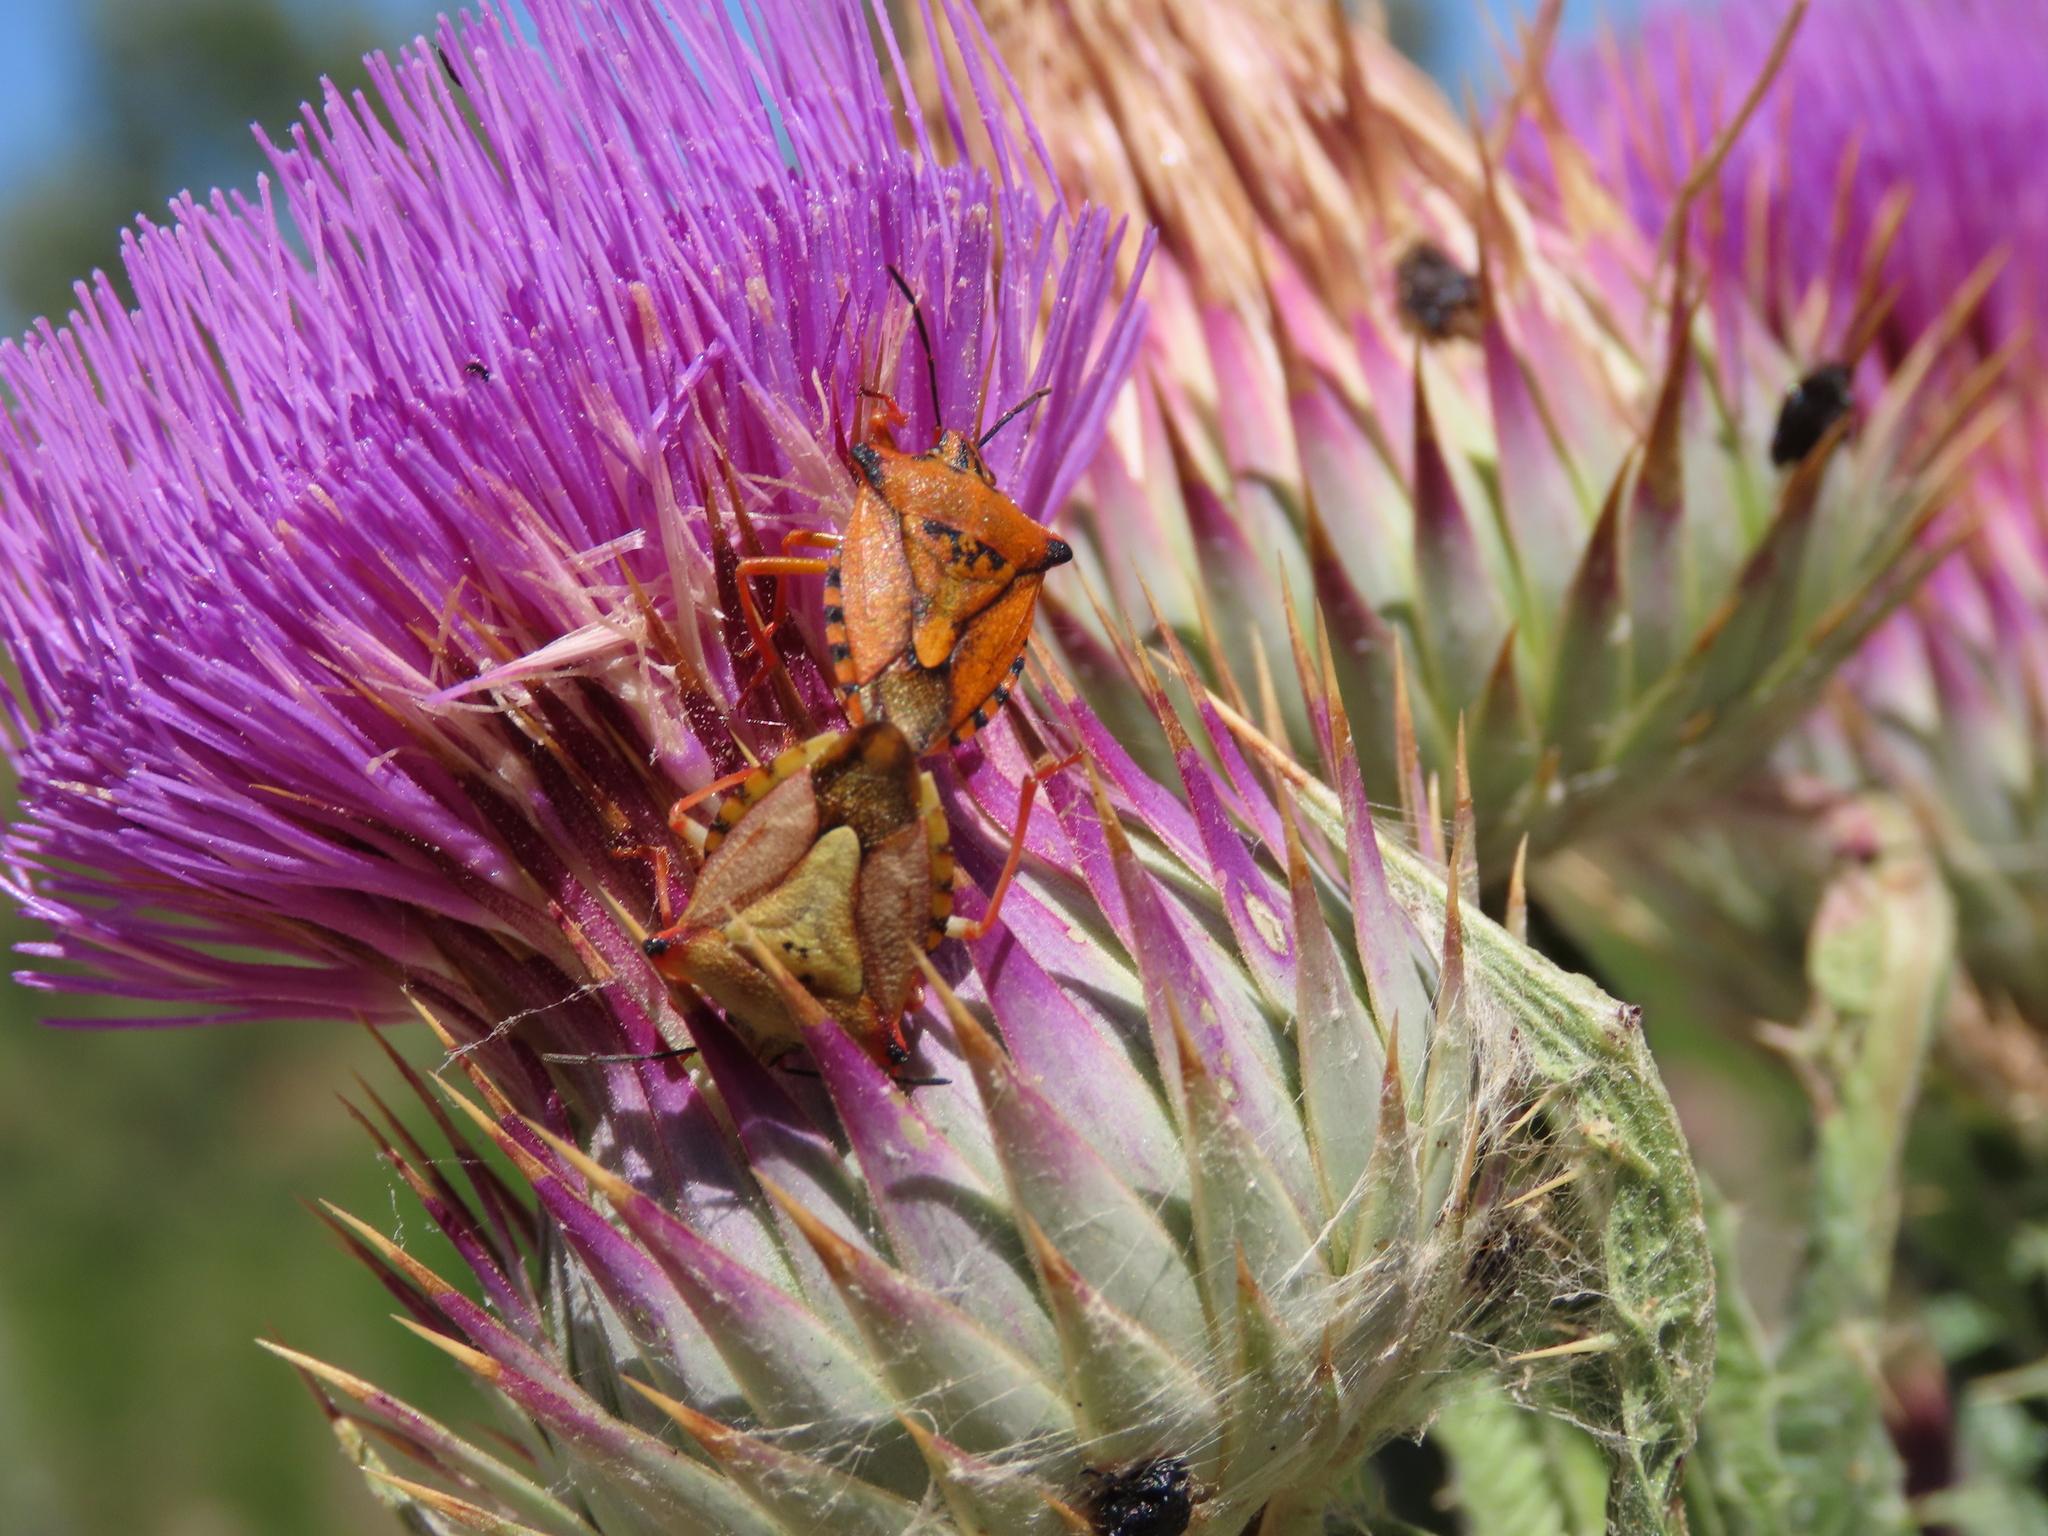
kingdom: Animalia
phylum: Arthropoda
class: Insecta
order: Hemiptera
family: Pentatomidae
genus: Carpocoris
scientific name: Carpocoris mediterraneus
